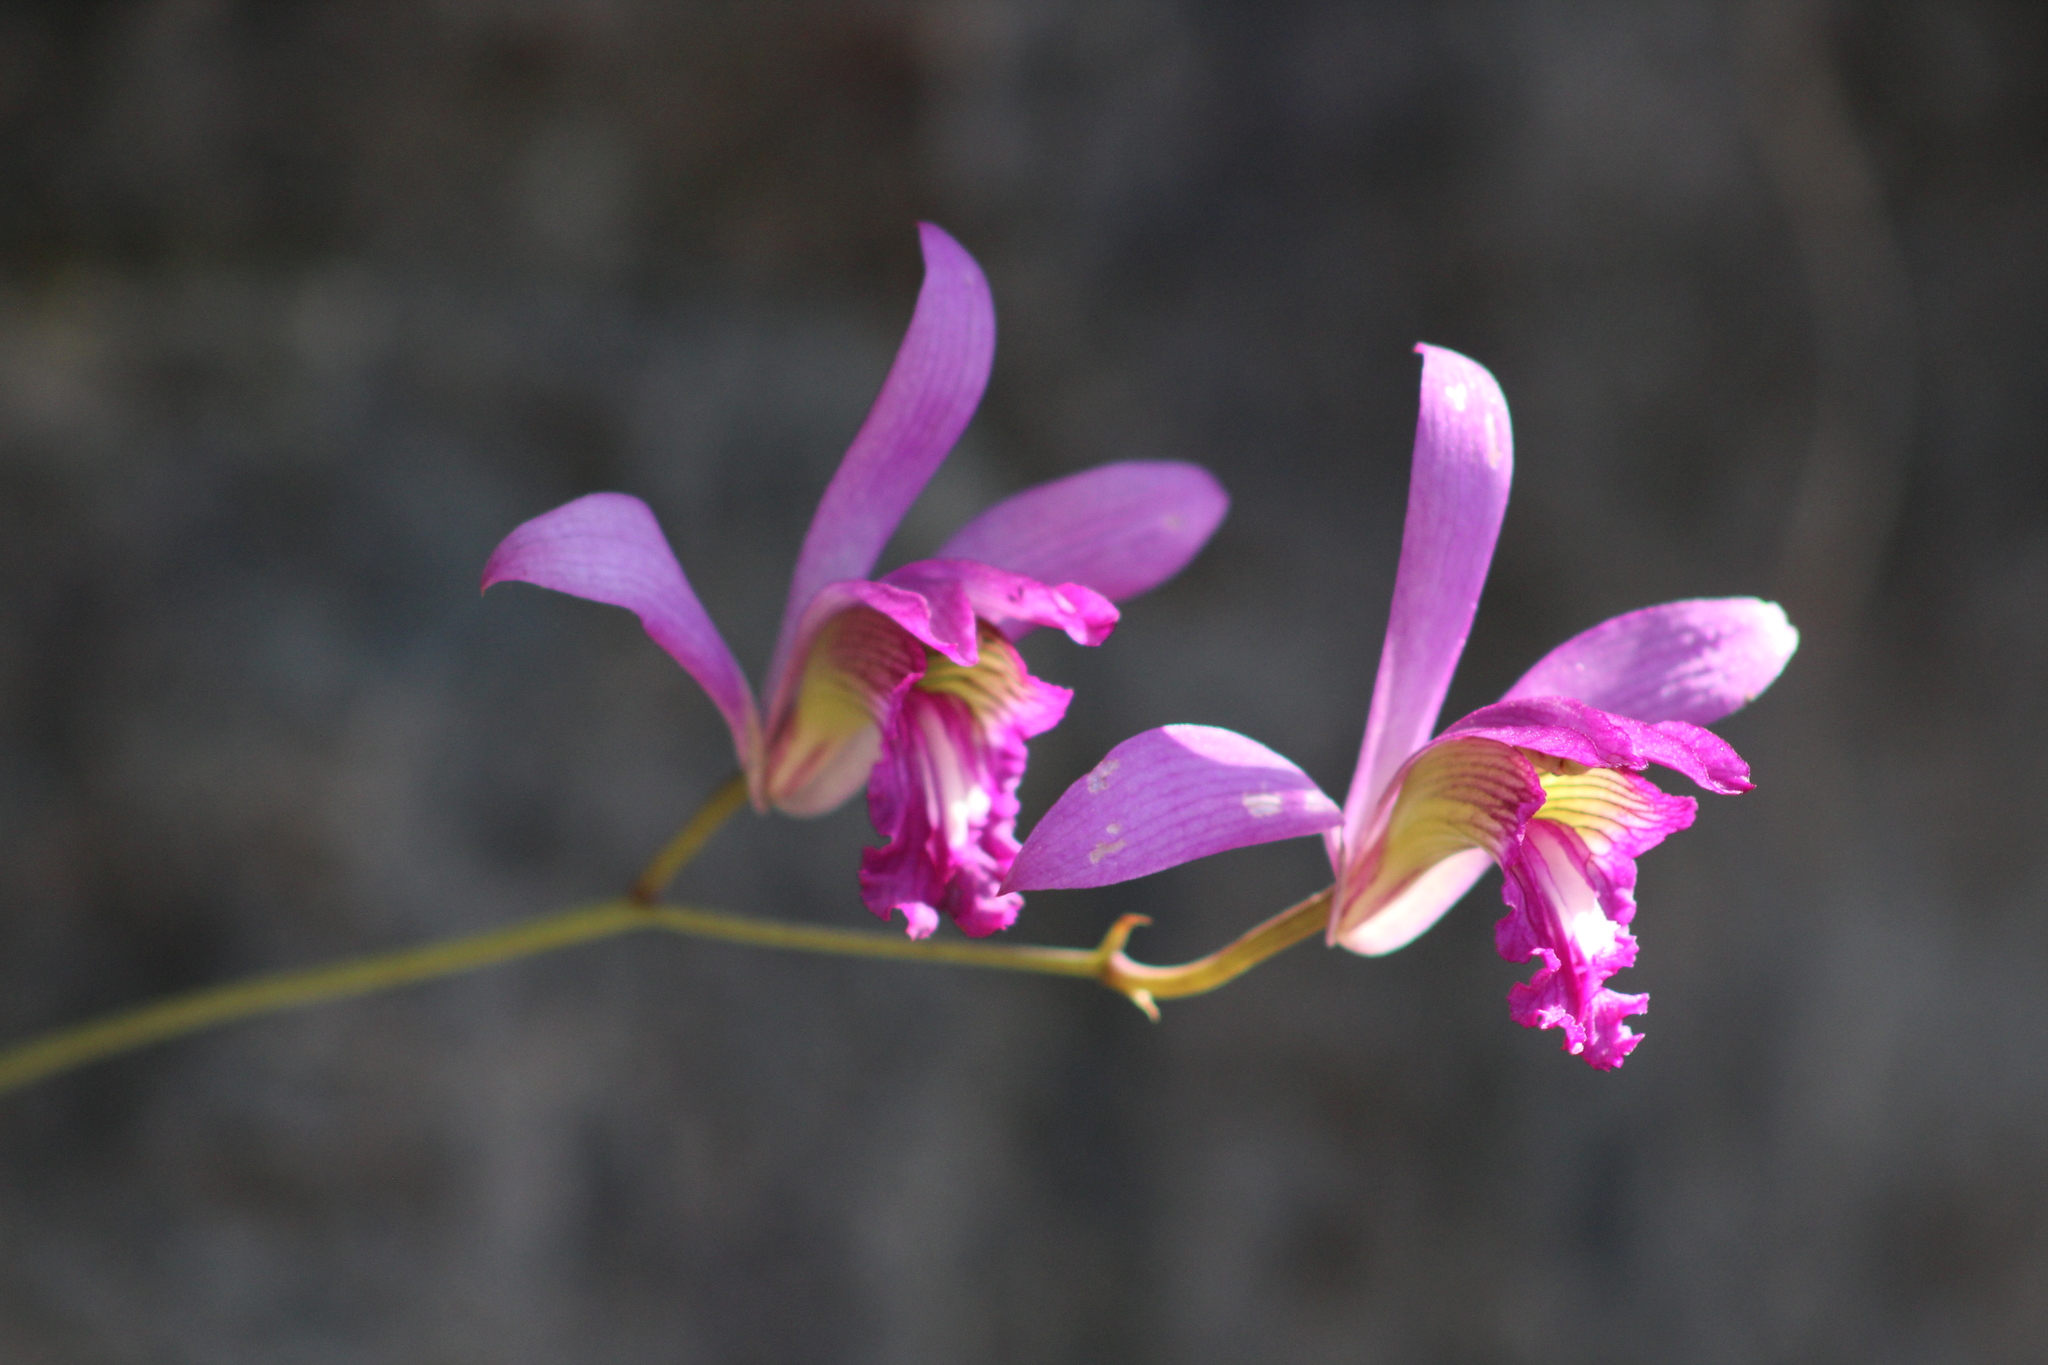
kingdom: Plantae
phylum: Tracheophyta
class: Liliopsida
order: Asparagales
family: Orchidaceae
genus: Bletia
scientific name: Bletia reflexa
